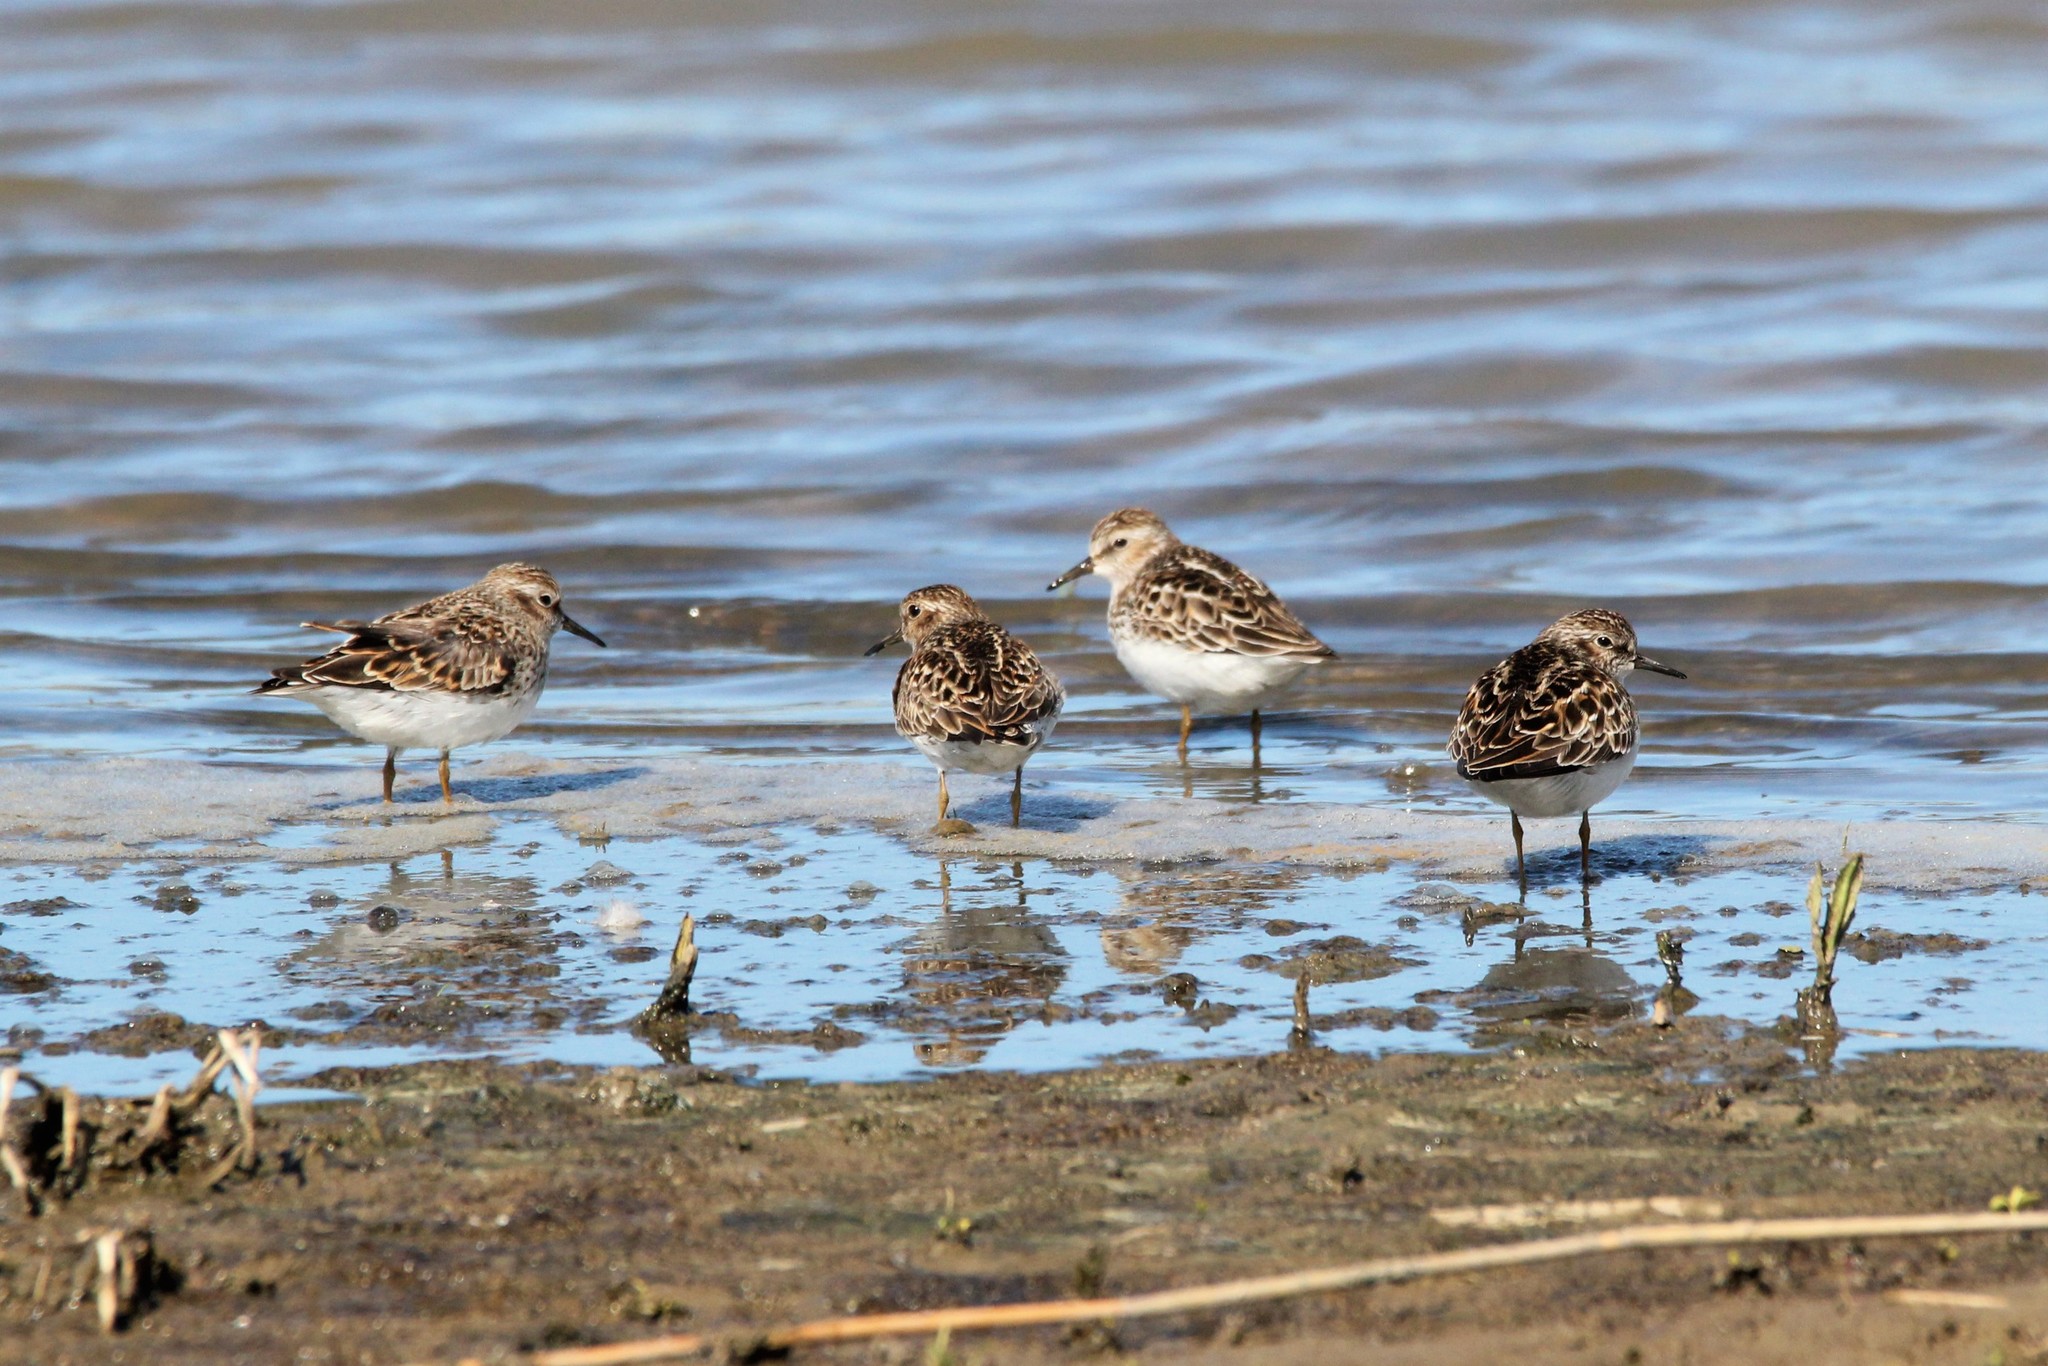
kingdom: Animalia
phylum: Chordata
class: Aves
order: Charadriiformes
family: Scolopacidae
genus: Calidris
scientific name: Calidris minutilla
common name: Least sandpiper
